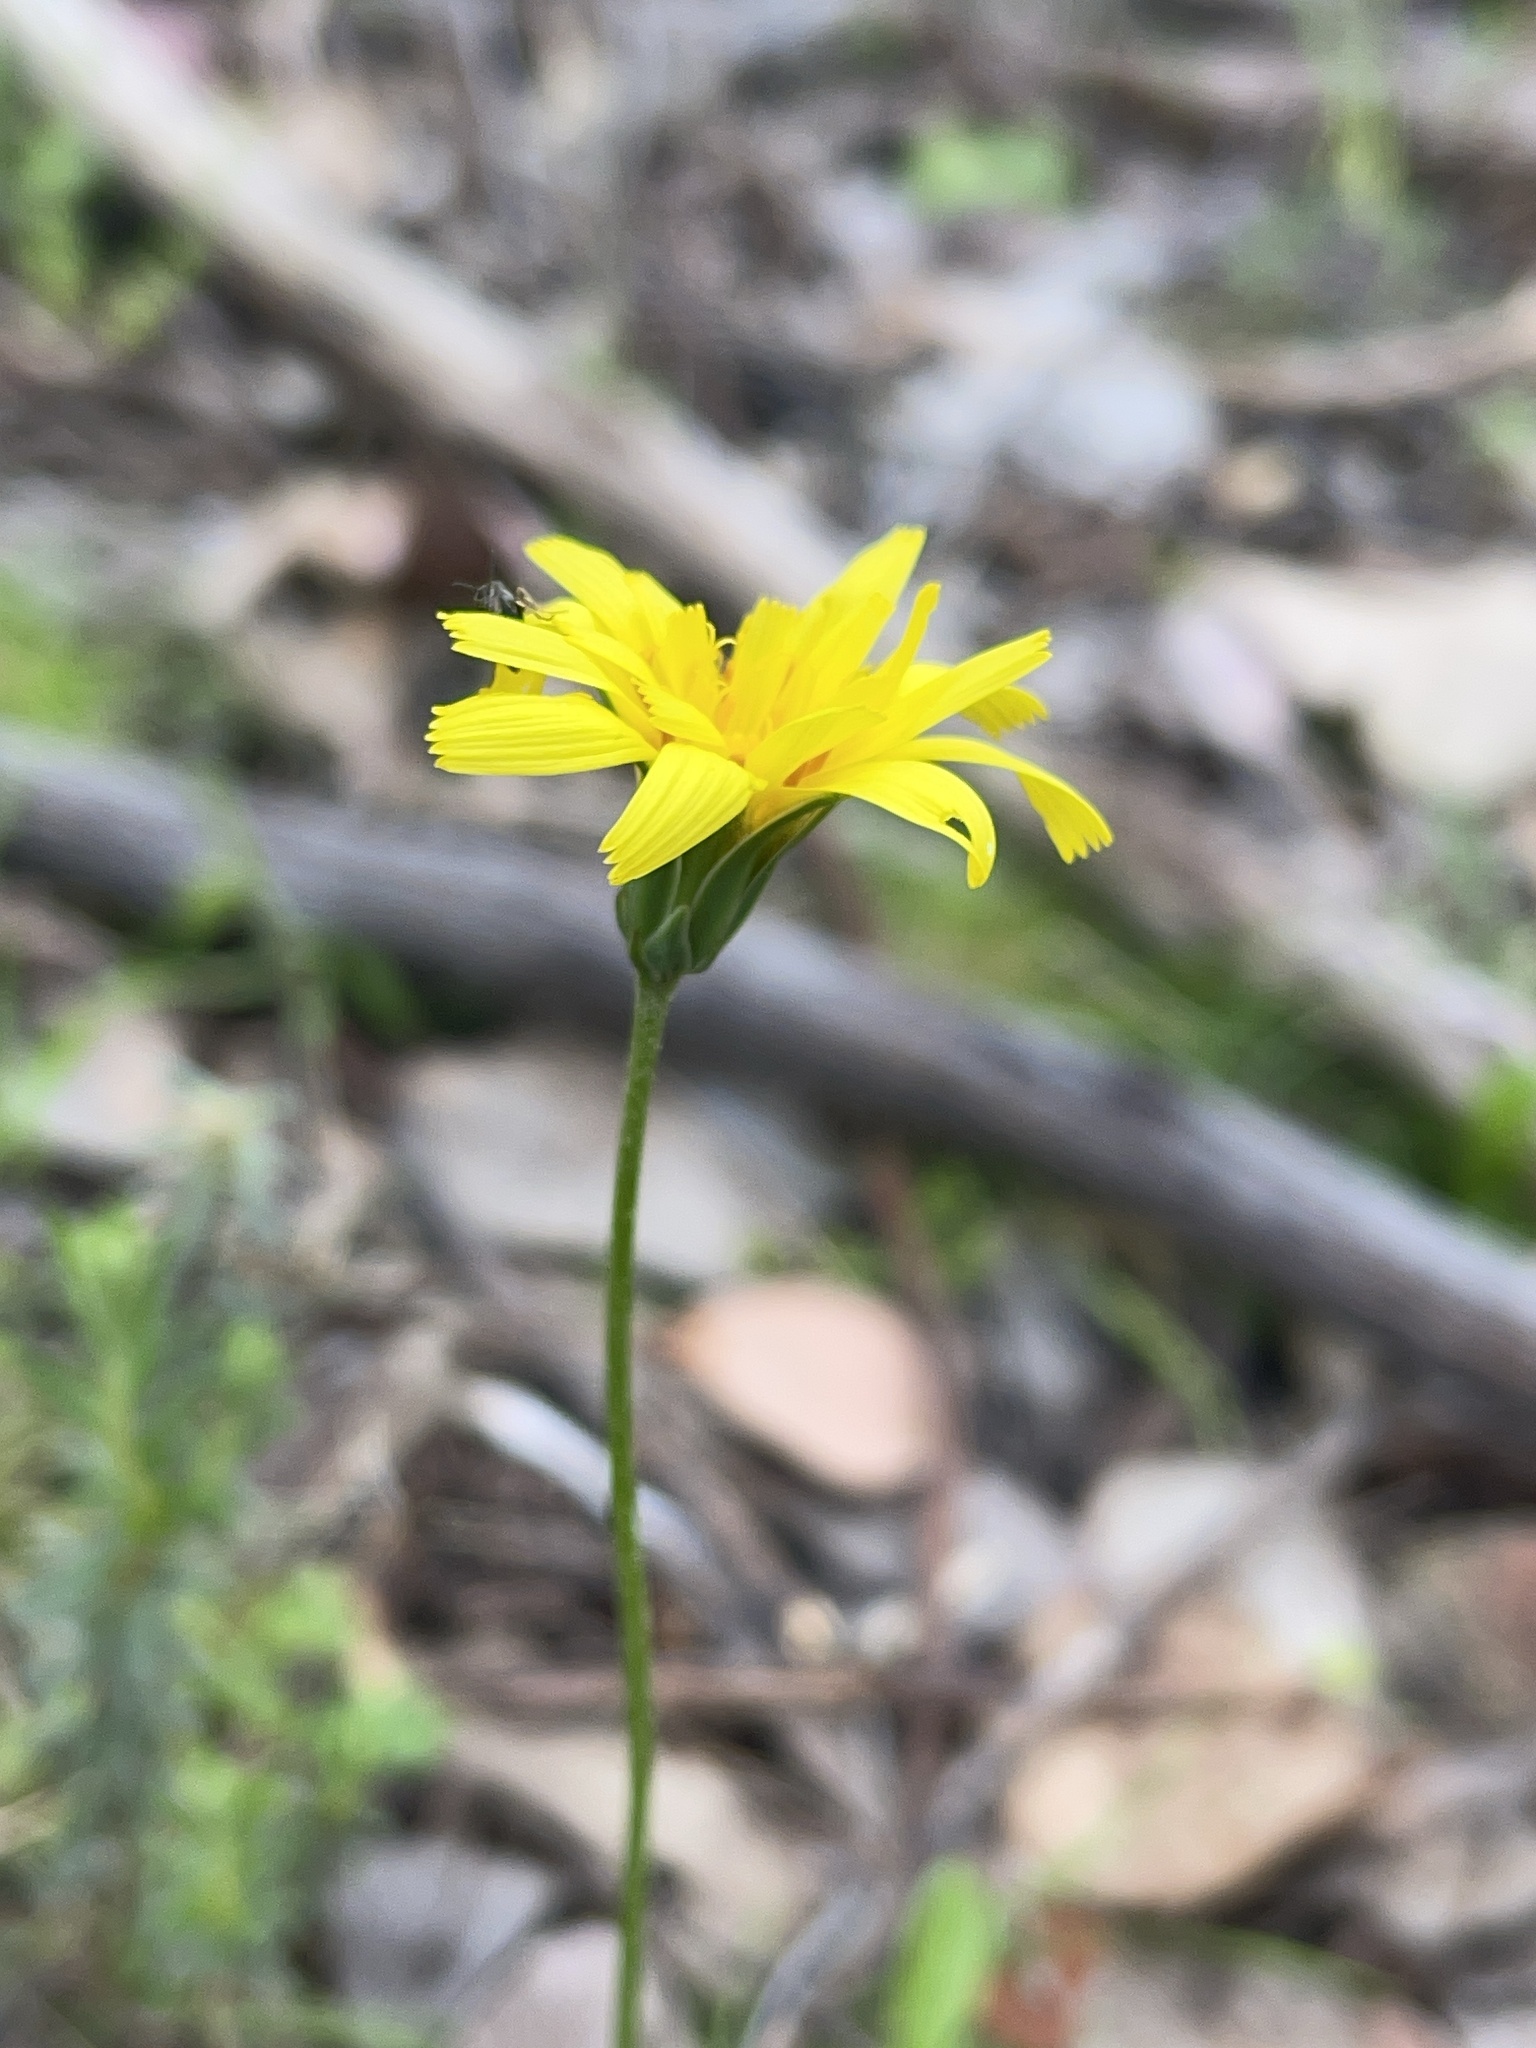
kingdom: Plantae
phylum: Tracheophyta
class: Magnoliopsida
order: Asterales
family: Asteraceae
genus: Microseris
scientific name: Microseris lanceolata
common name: Yam daisy
